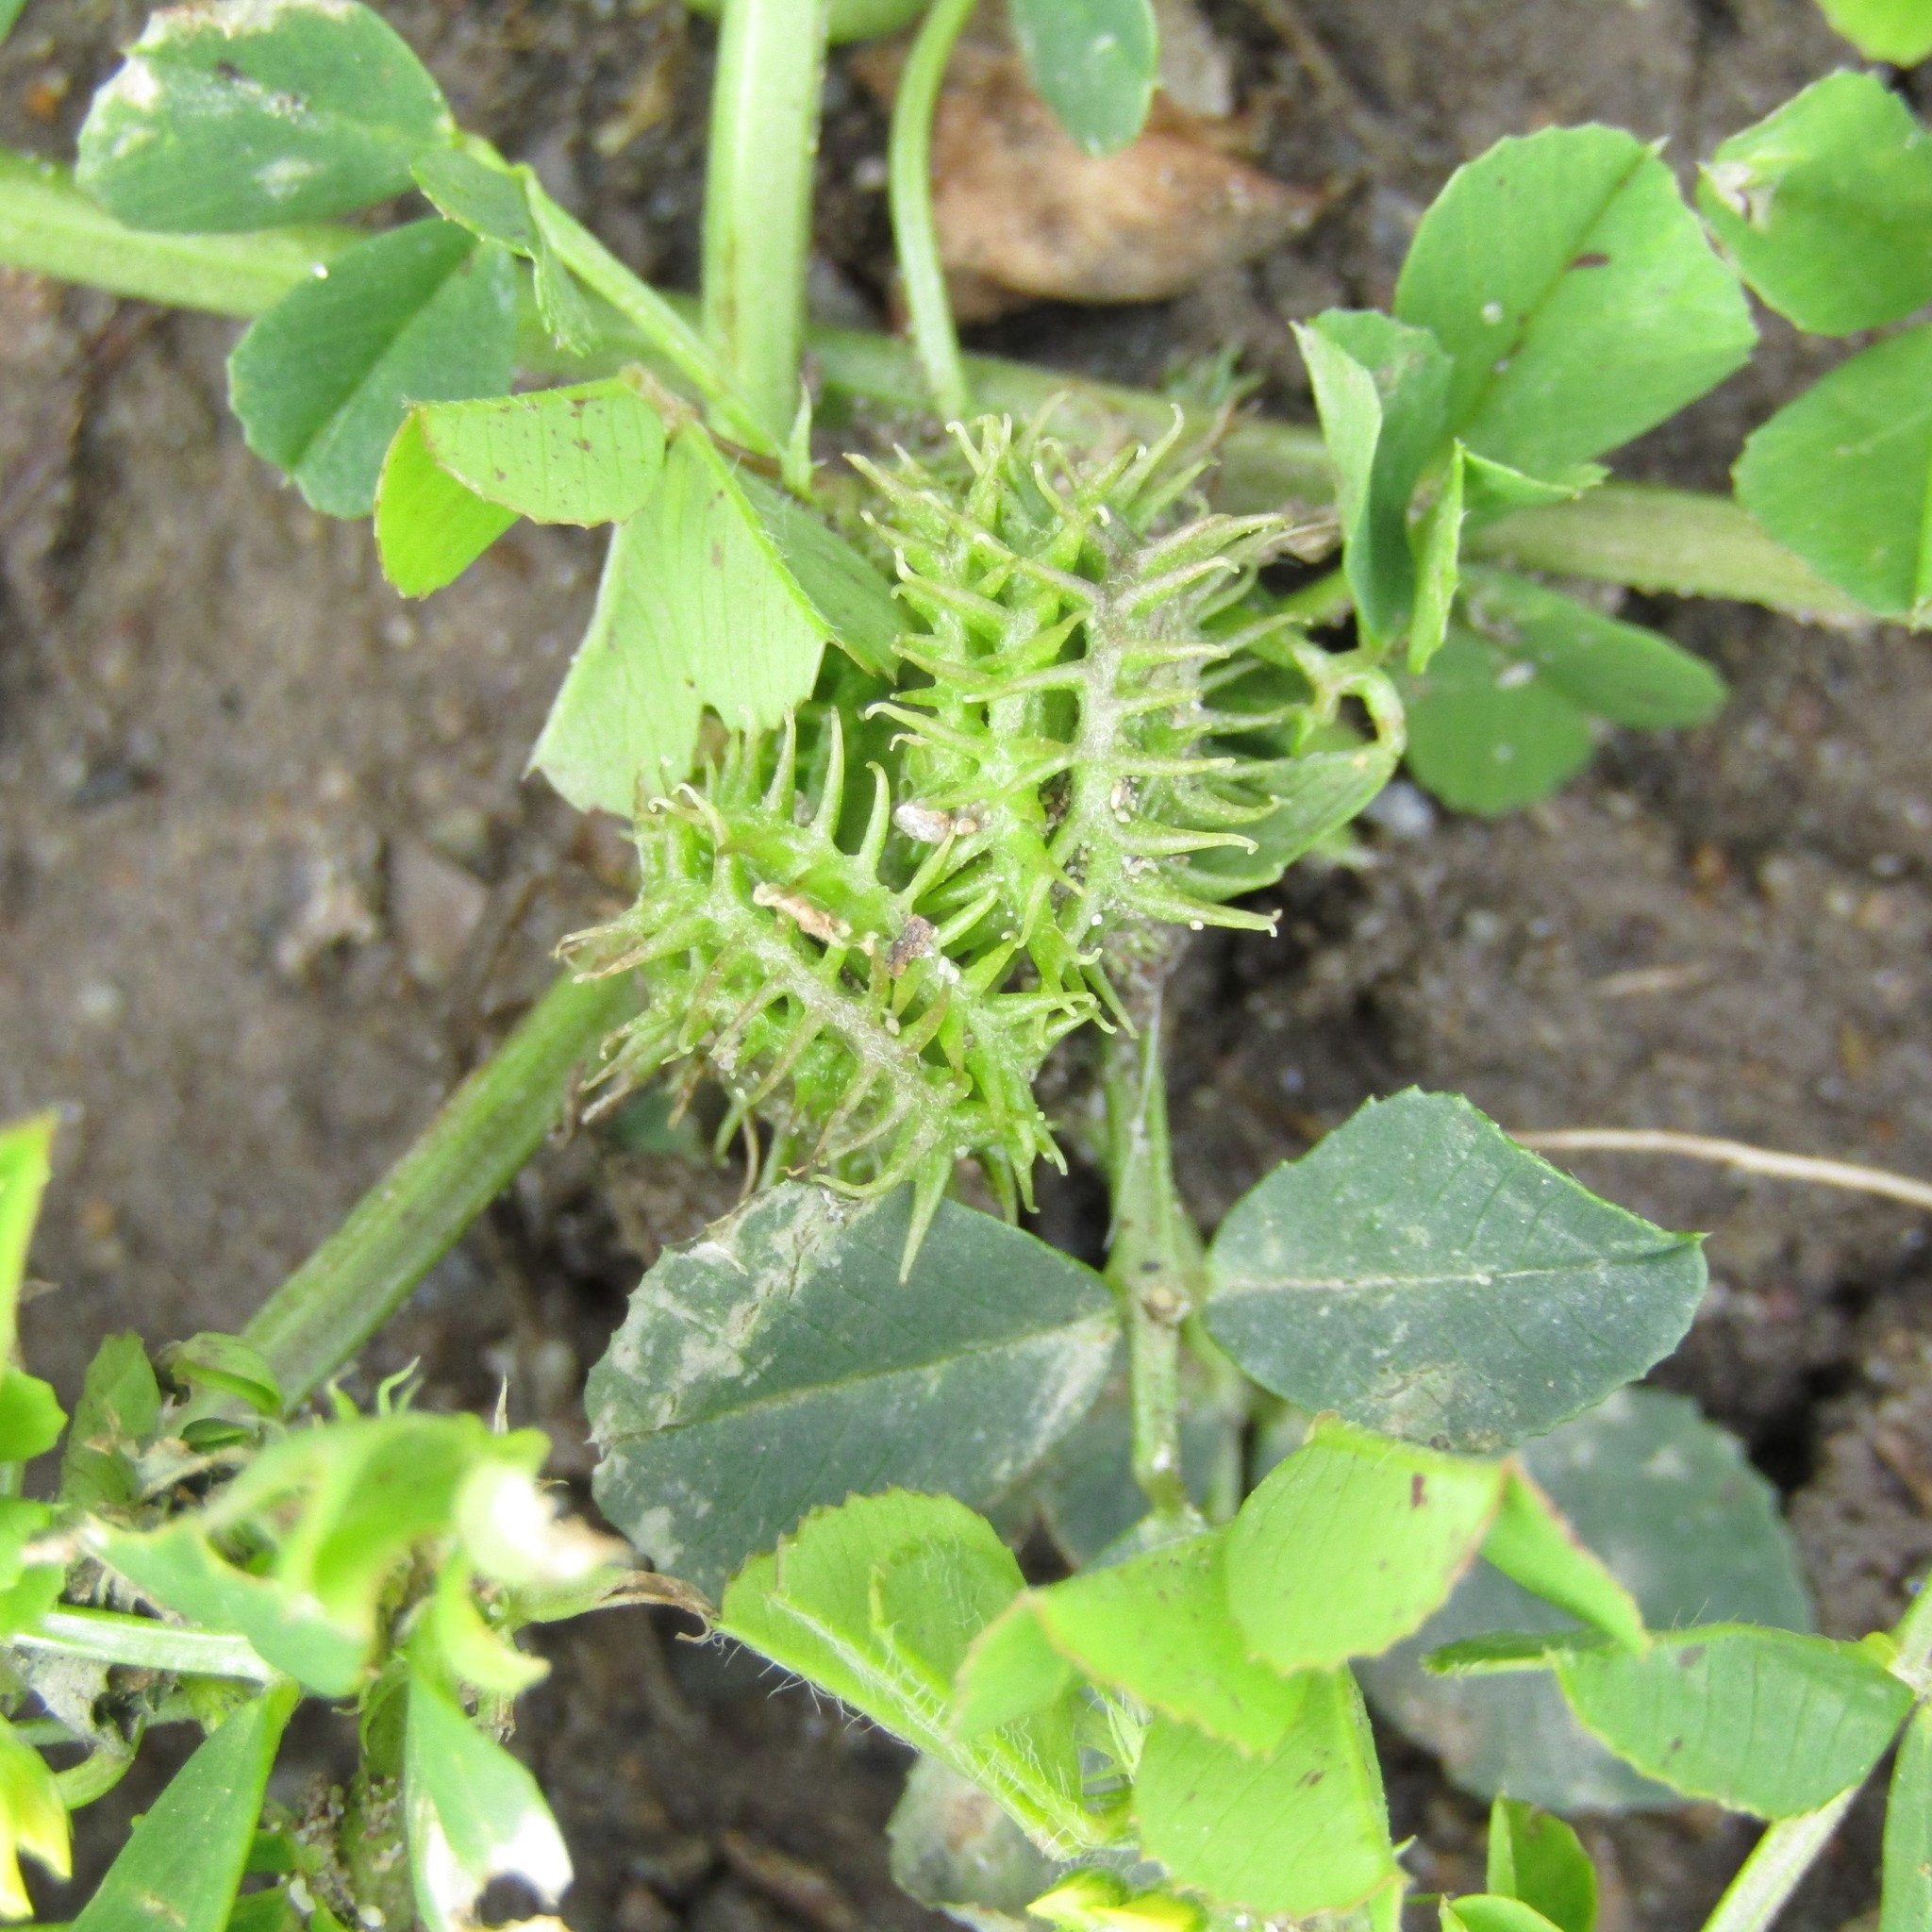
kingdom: Plantae
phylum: Tracheophyta
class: Magnoliopsida
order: Fabales
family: Fabaceae
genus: Medicago
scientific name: Medicago polymorpha
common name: Burclover
